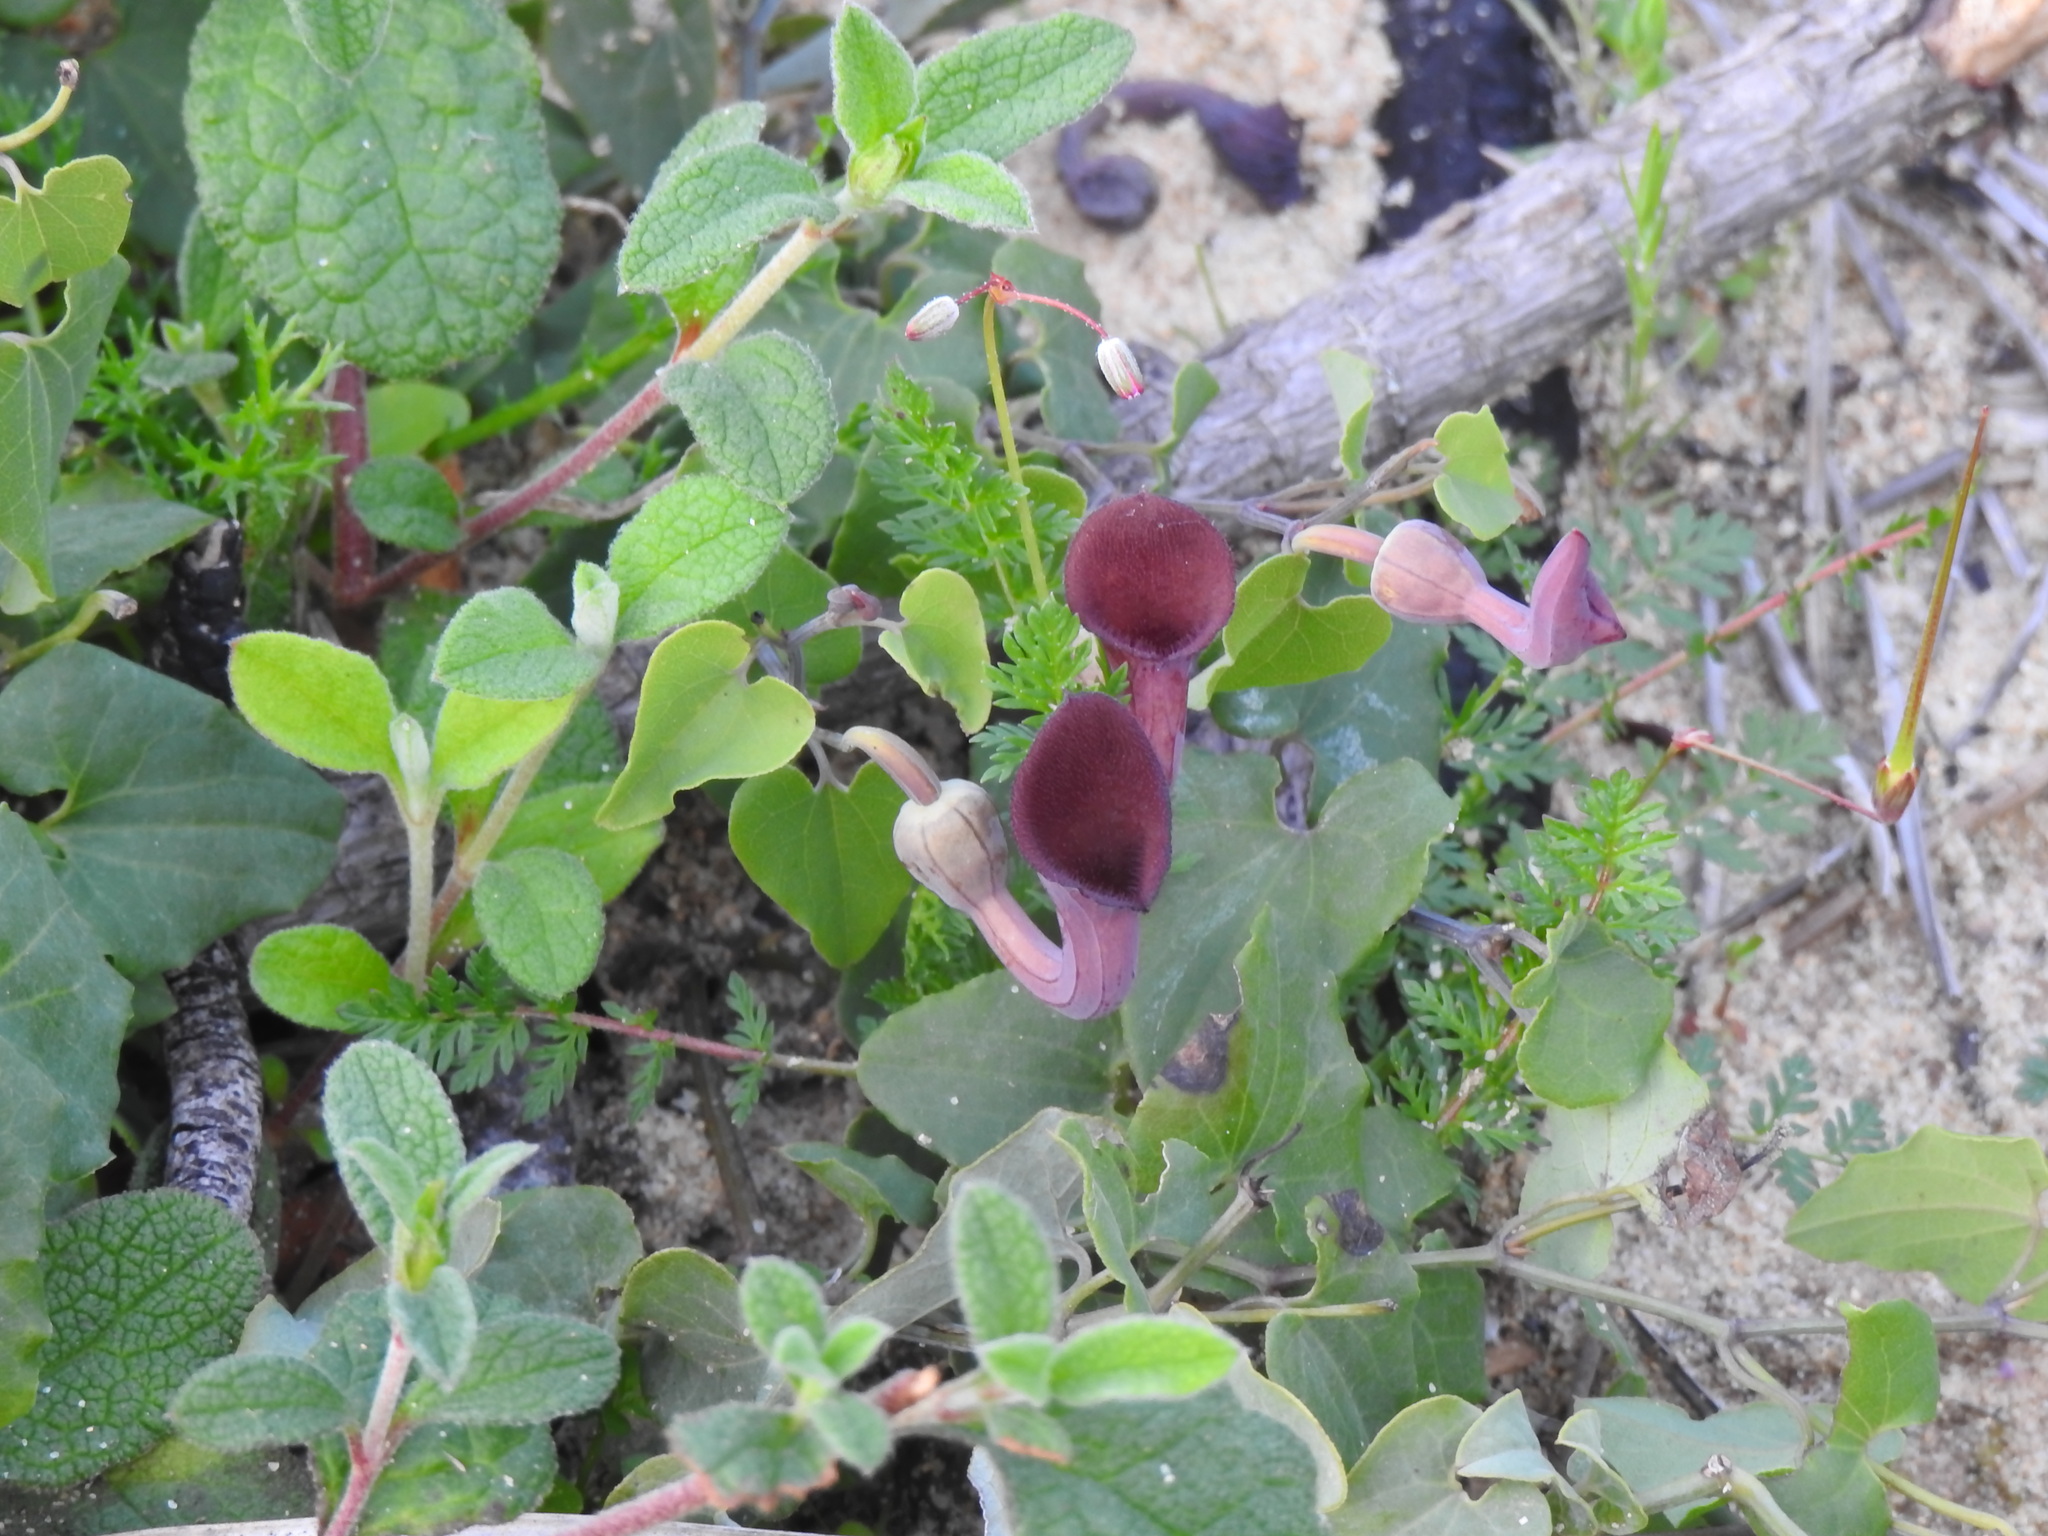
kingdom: Plantae
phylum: Tracheophyta
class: Magnoliopsida
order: Piperales
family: Aristolochiaceae
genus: Aristolochia
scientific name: Aristolochia baetica
